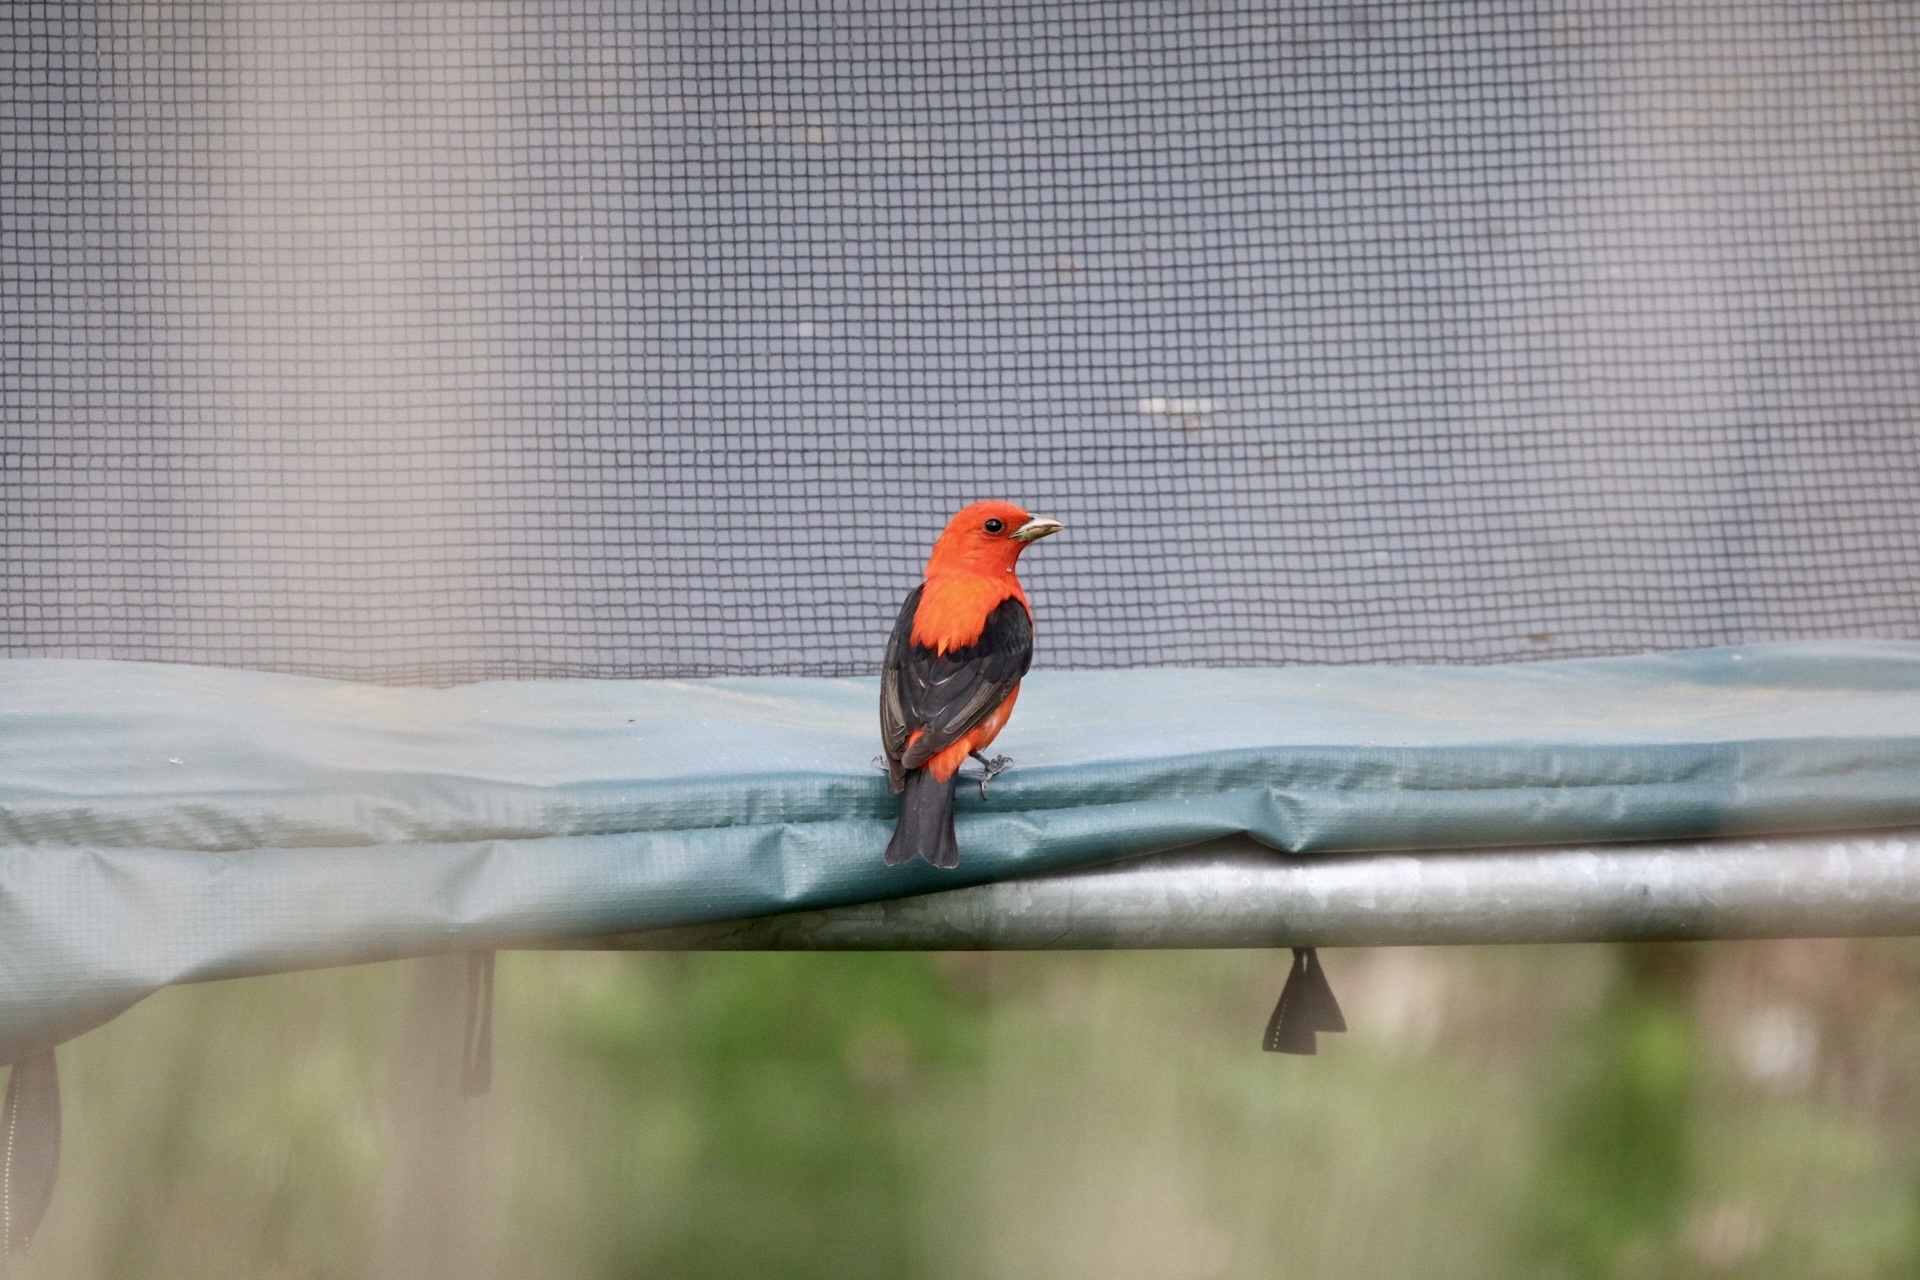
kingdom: Animalia
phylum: Chordata
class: Aves
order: Passeriformes
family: Cardinalidae
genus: Piranga
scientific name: Piranga olivacea
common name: Scarlet tanager
